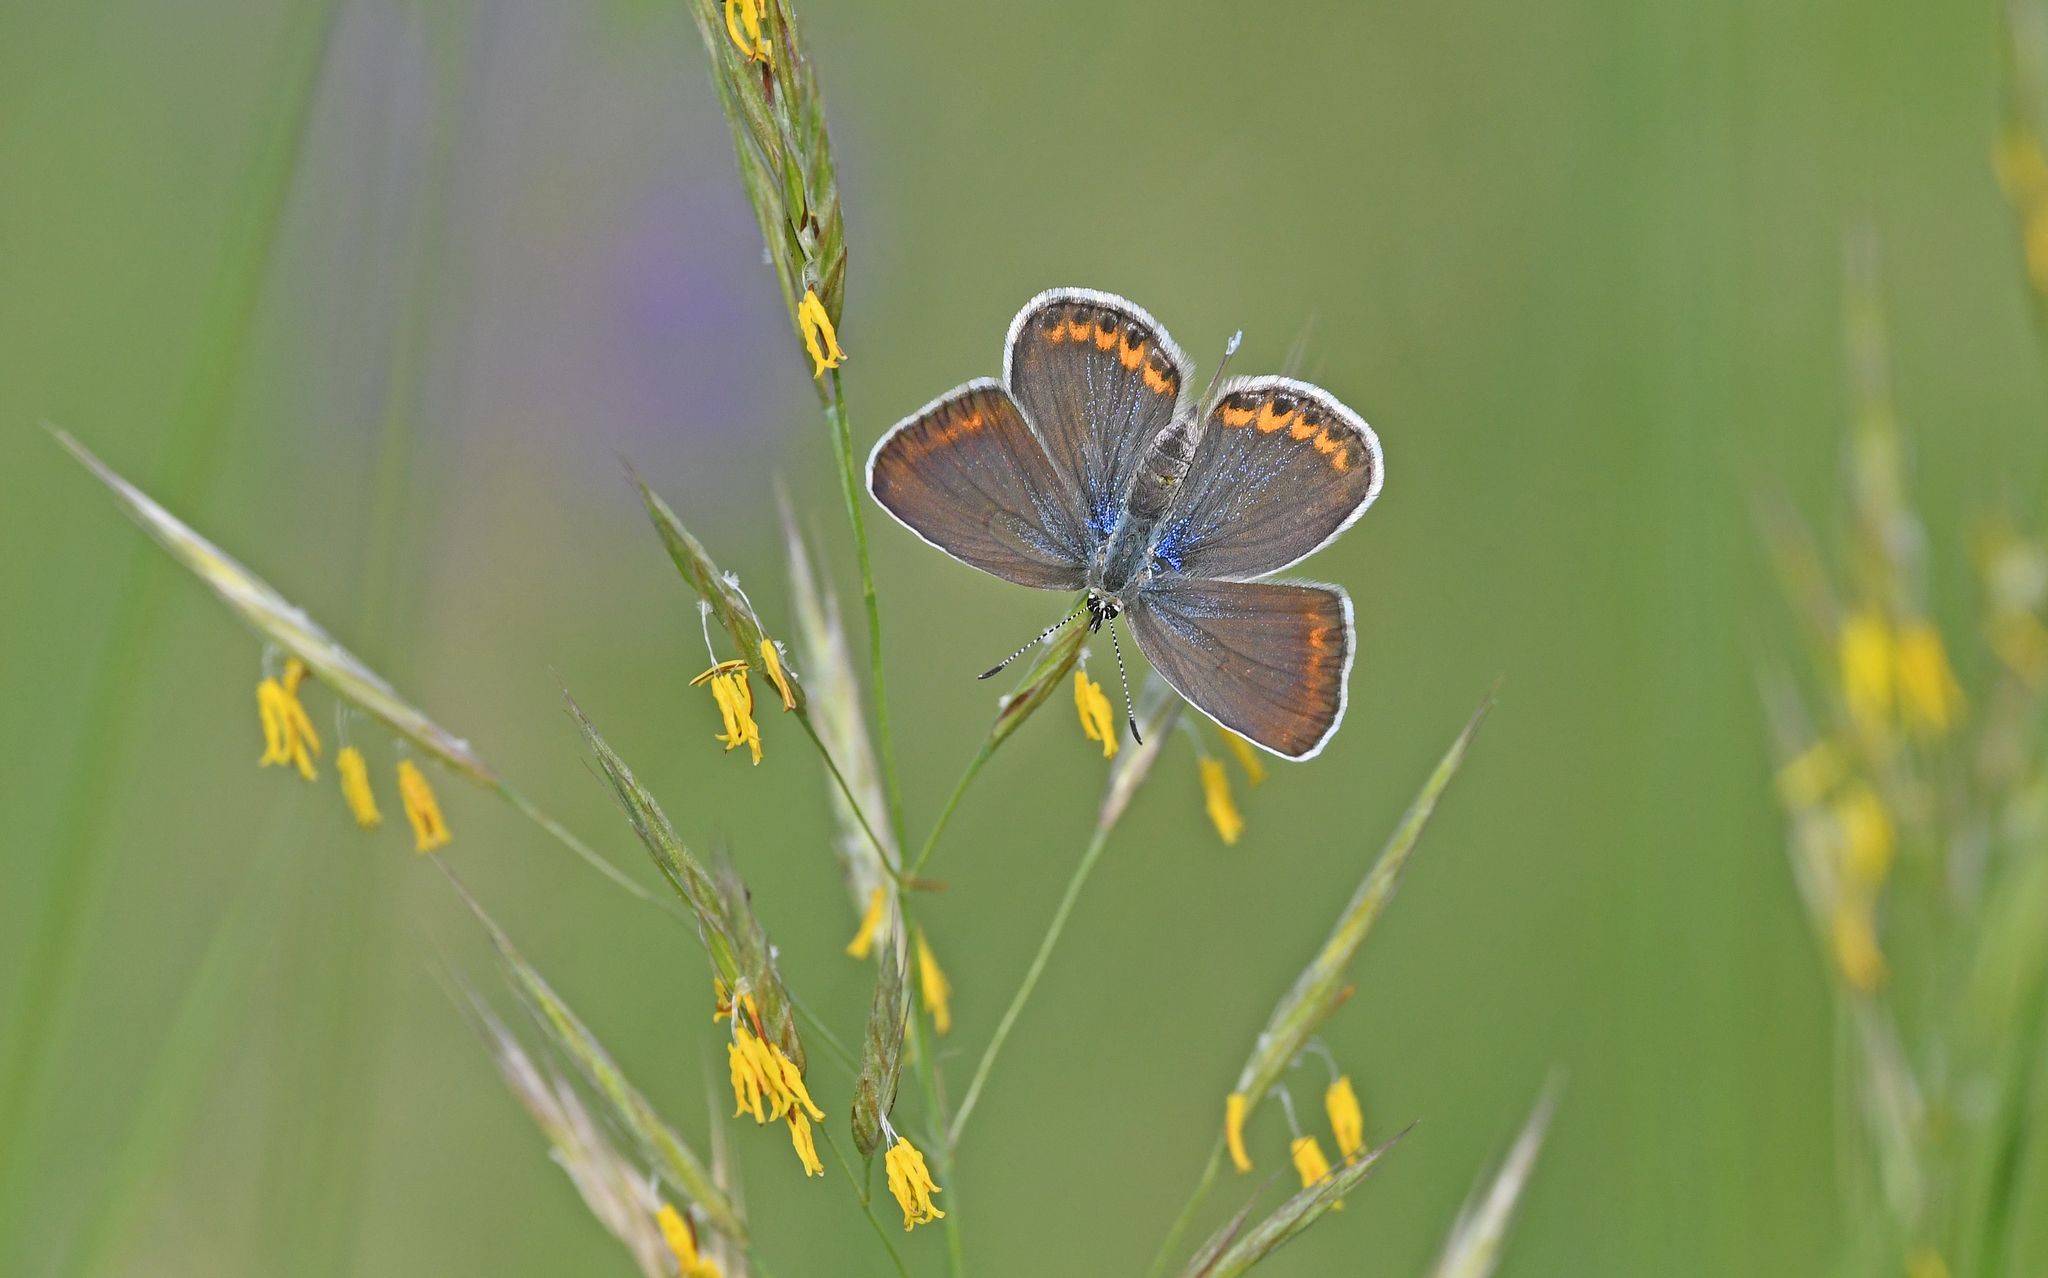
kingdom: Animalia
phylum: Arthropoda
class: Insecta
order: Lepidoptera
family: Lycaenidae
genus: Plebejus
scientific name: Plebejus argyrognomon
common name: Reverdin's blue
